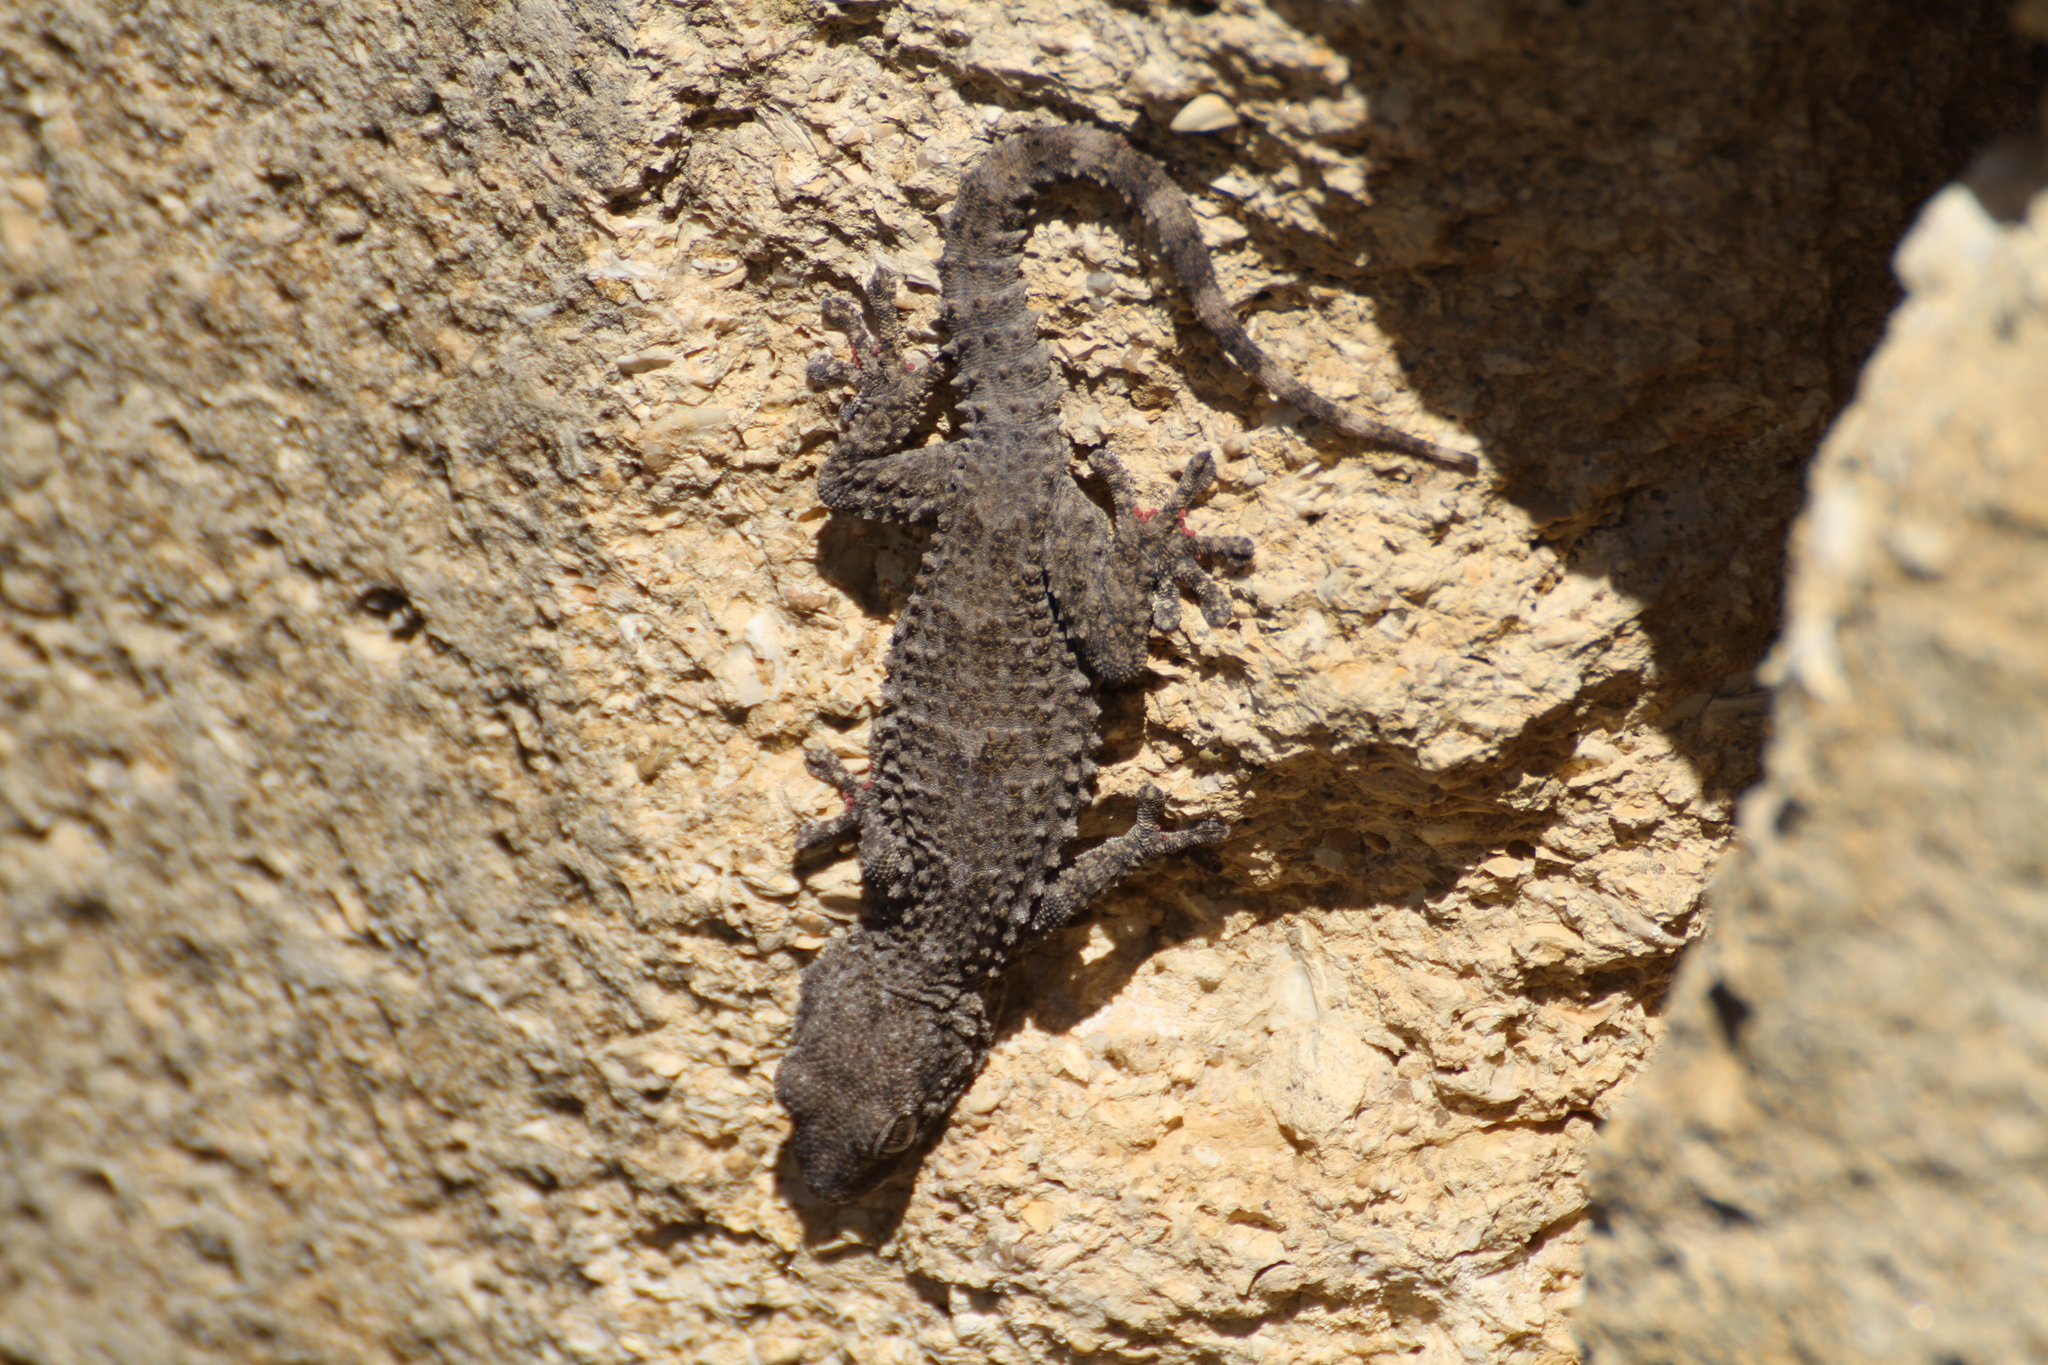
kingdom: Animalia
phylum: Chordata
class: Squamata
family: Phyllodactylidae
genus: Tarentola
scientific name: Tarentola mauritanica
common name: Moorish gecko
